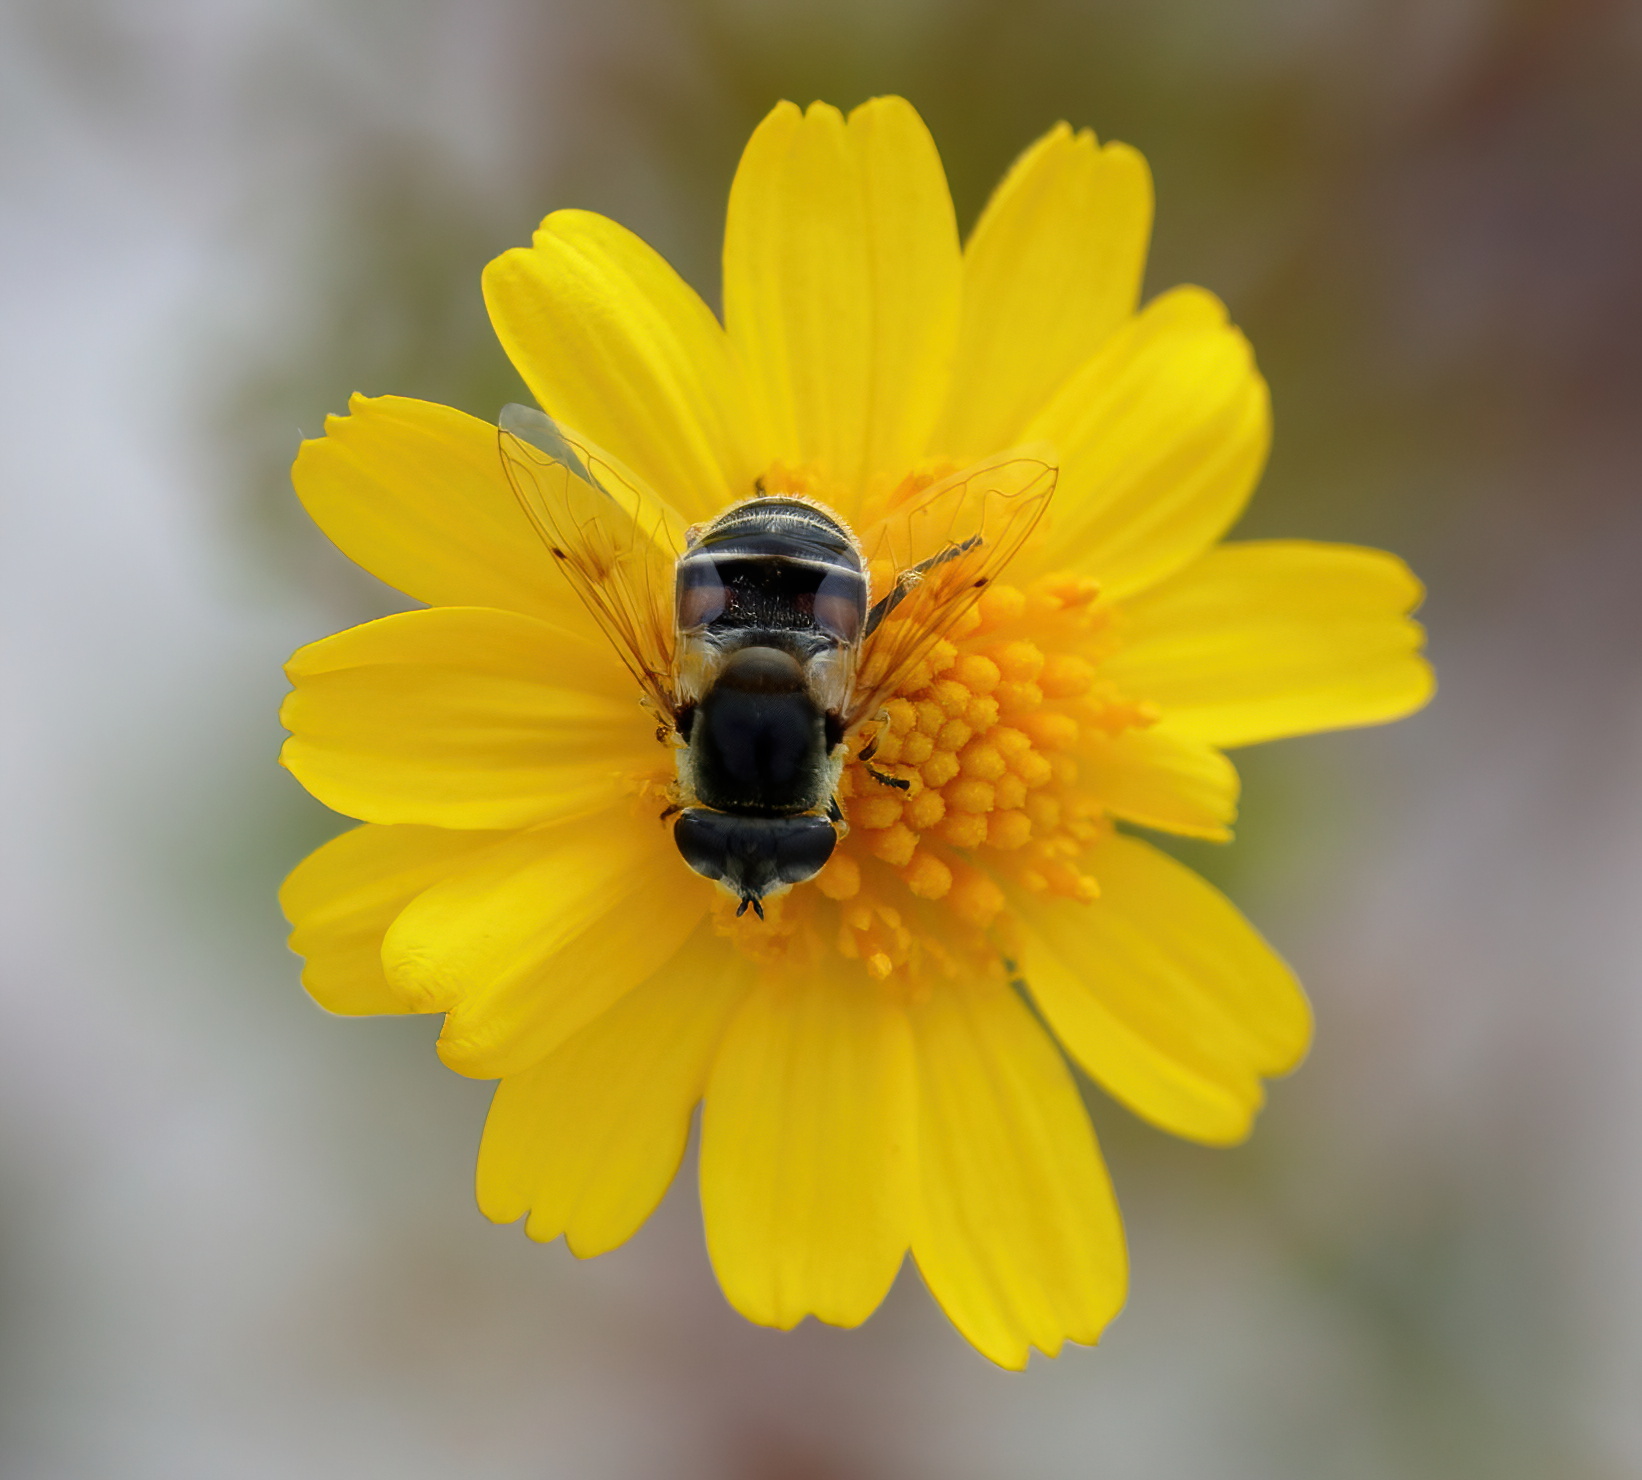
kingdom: Animalia
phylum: Arthropoda
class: Insecta
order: Diptera
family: Syrphidae
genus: Eristalis
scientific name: Eristalis stipator
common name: Yellow-shouldered drone fly
